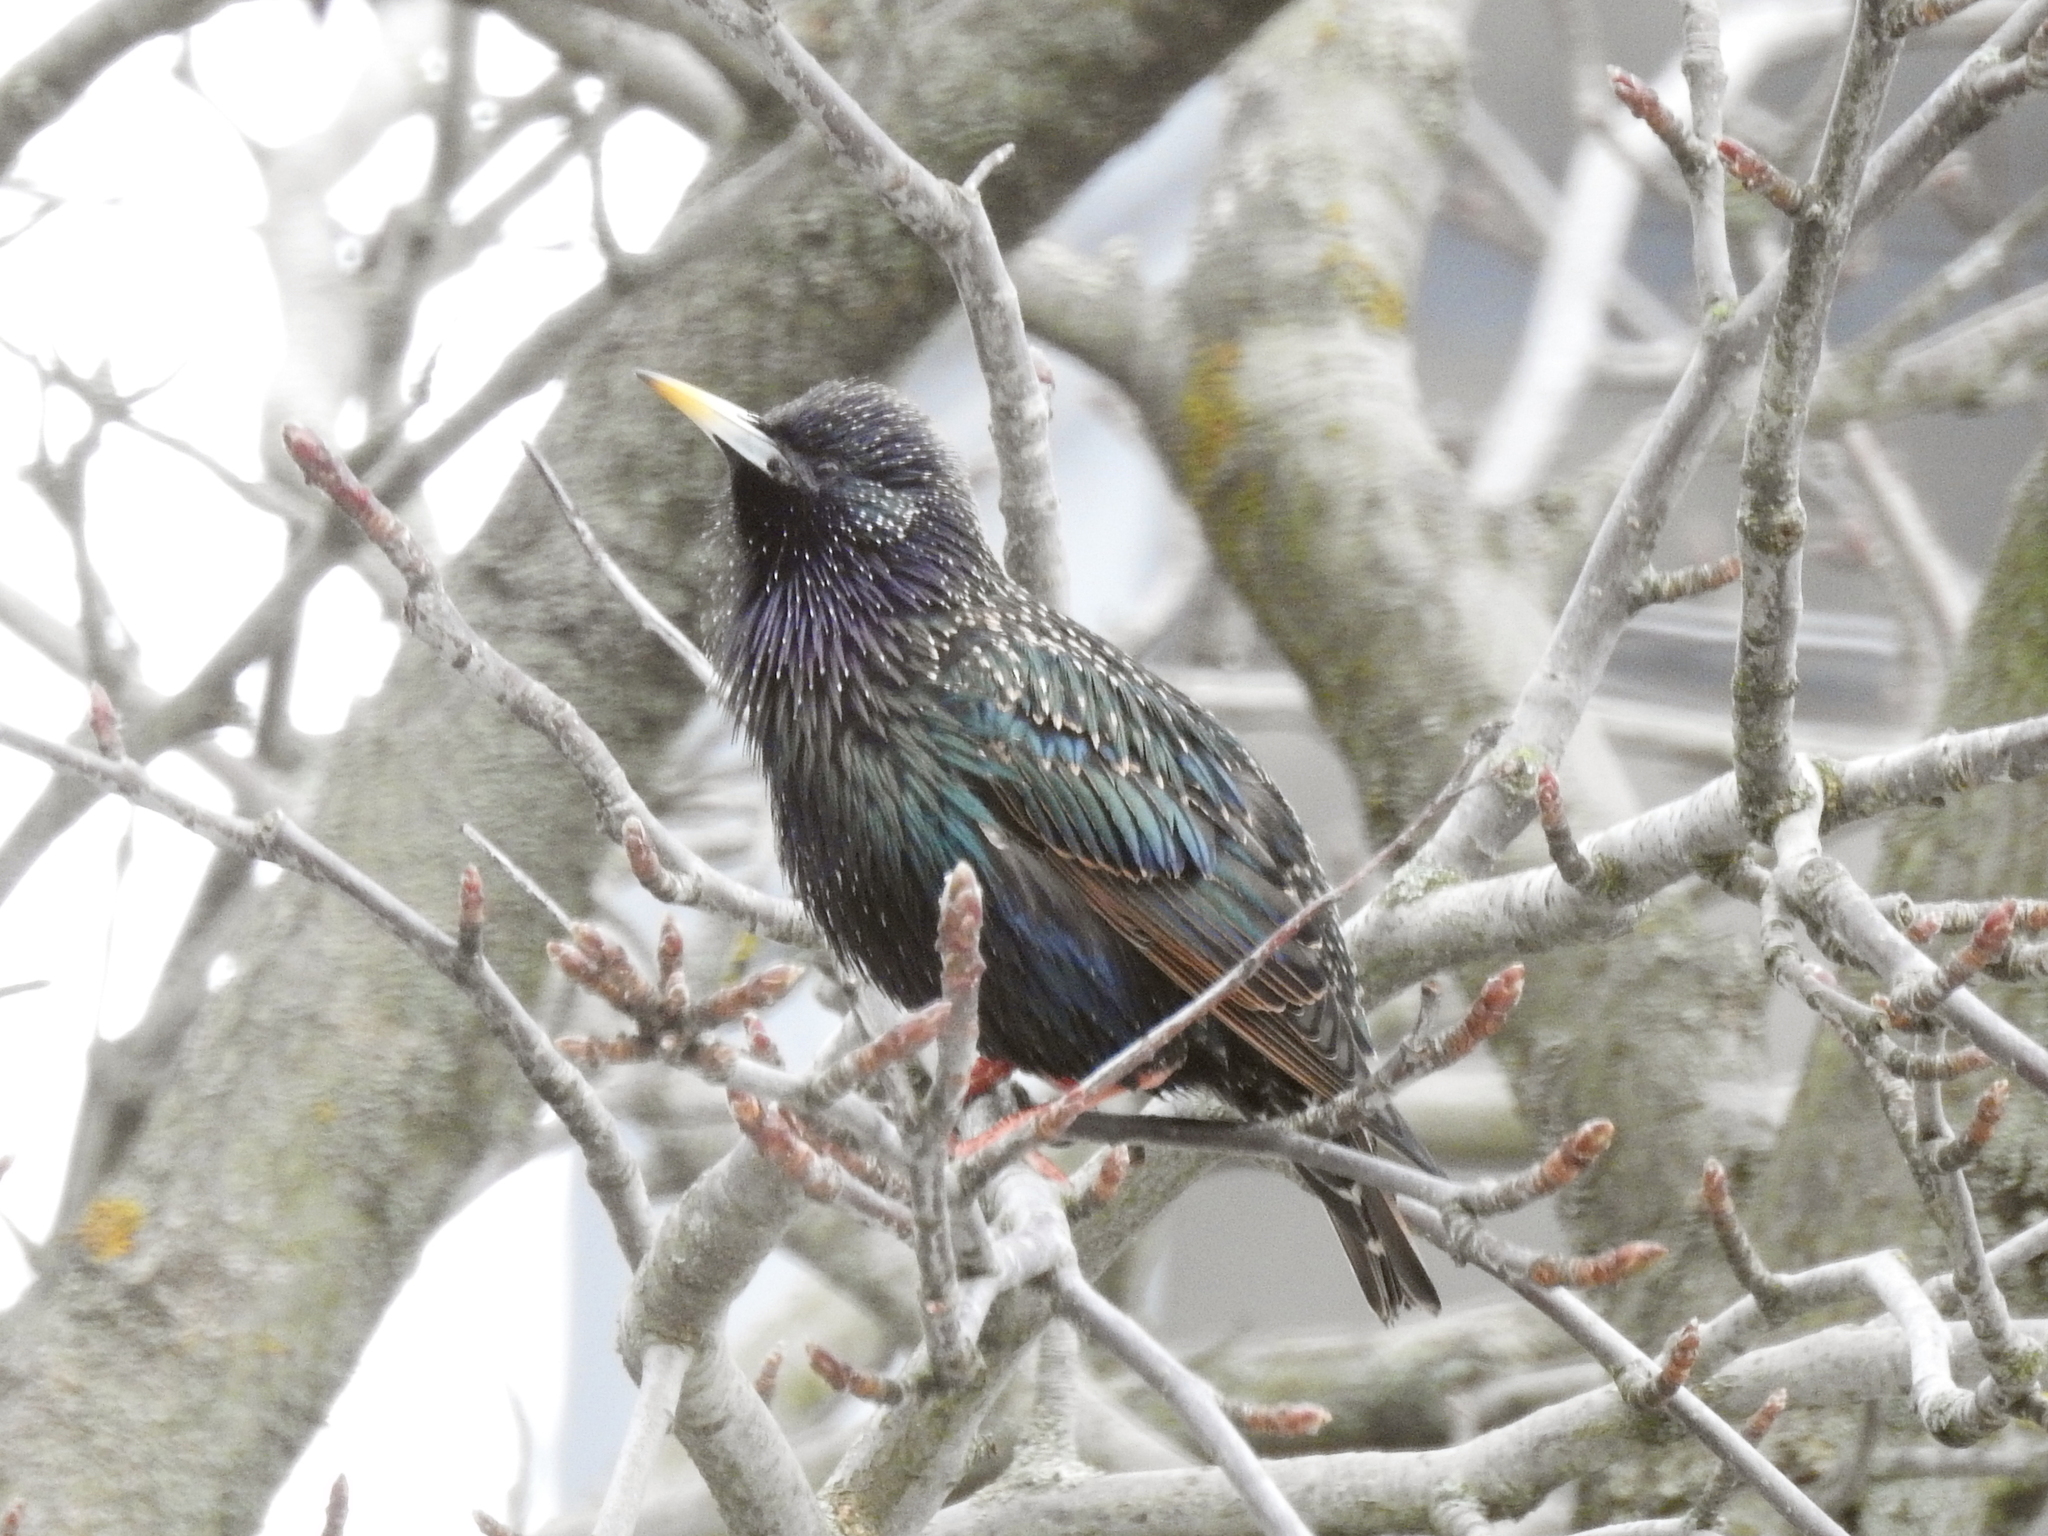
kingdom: Animalia
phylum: Chordata
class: Aves
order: Passeriformes
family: Sturnidae
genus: Sturnus
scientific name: Sturnus vulgaris
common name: Common starling
